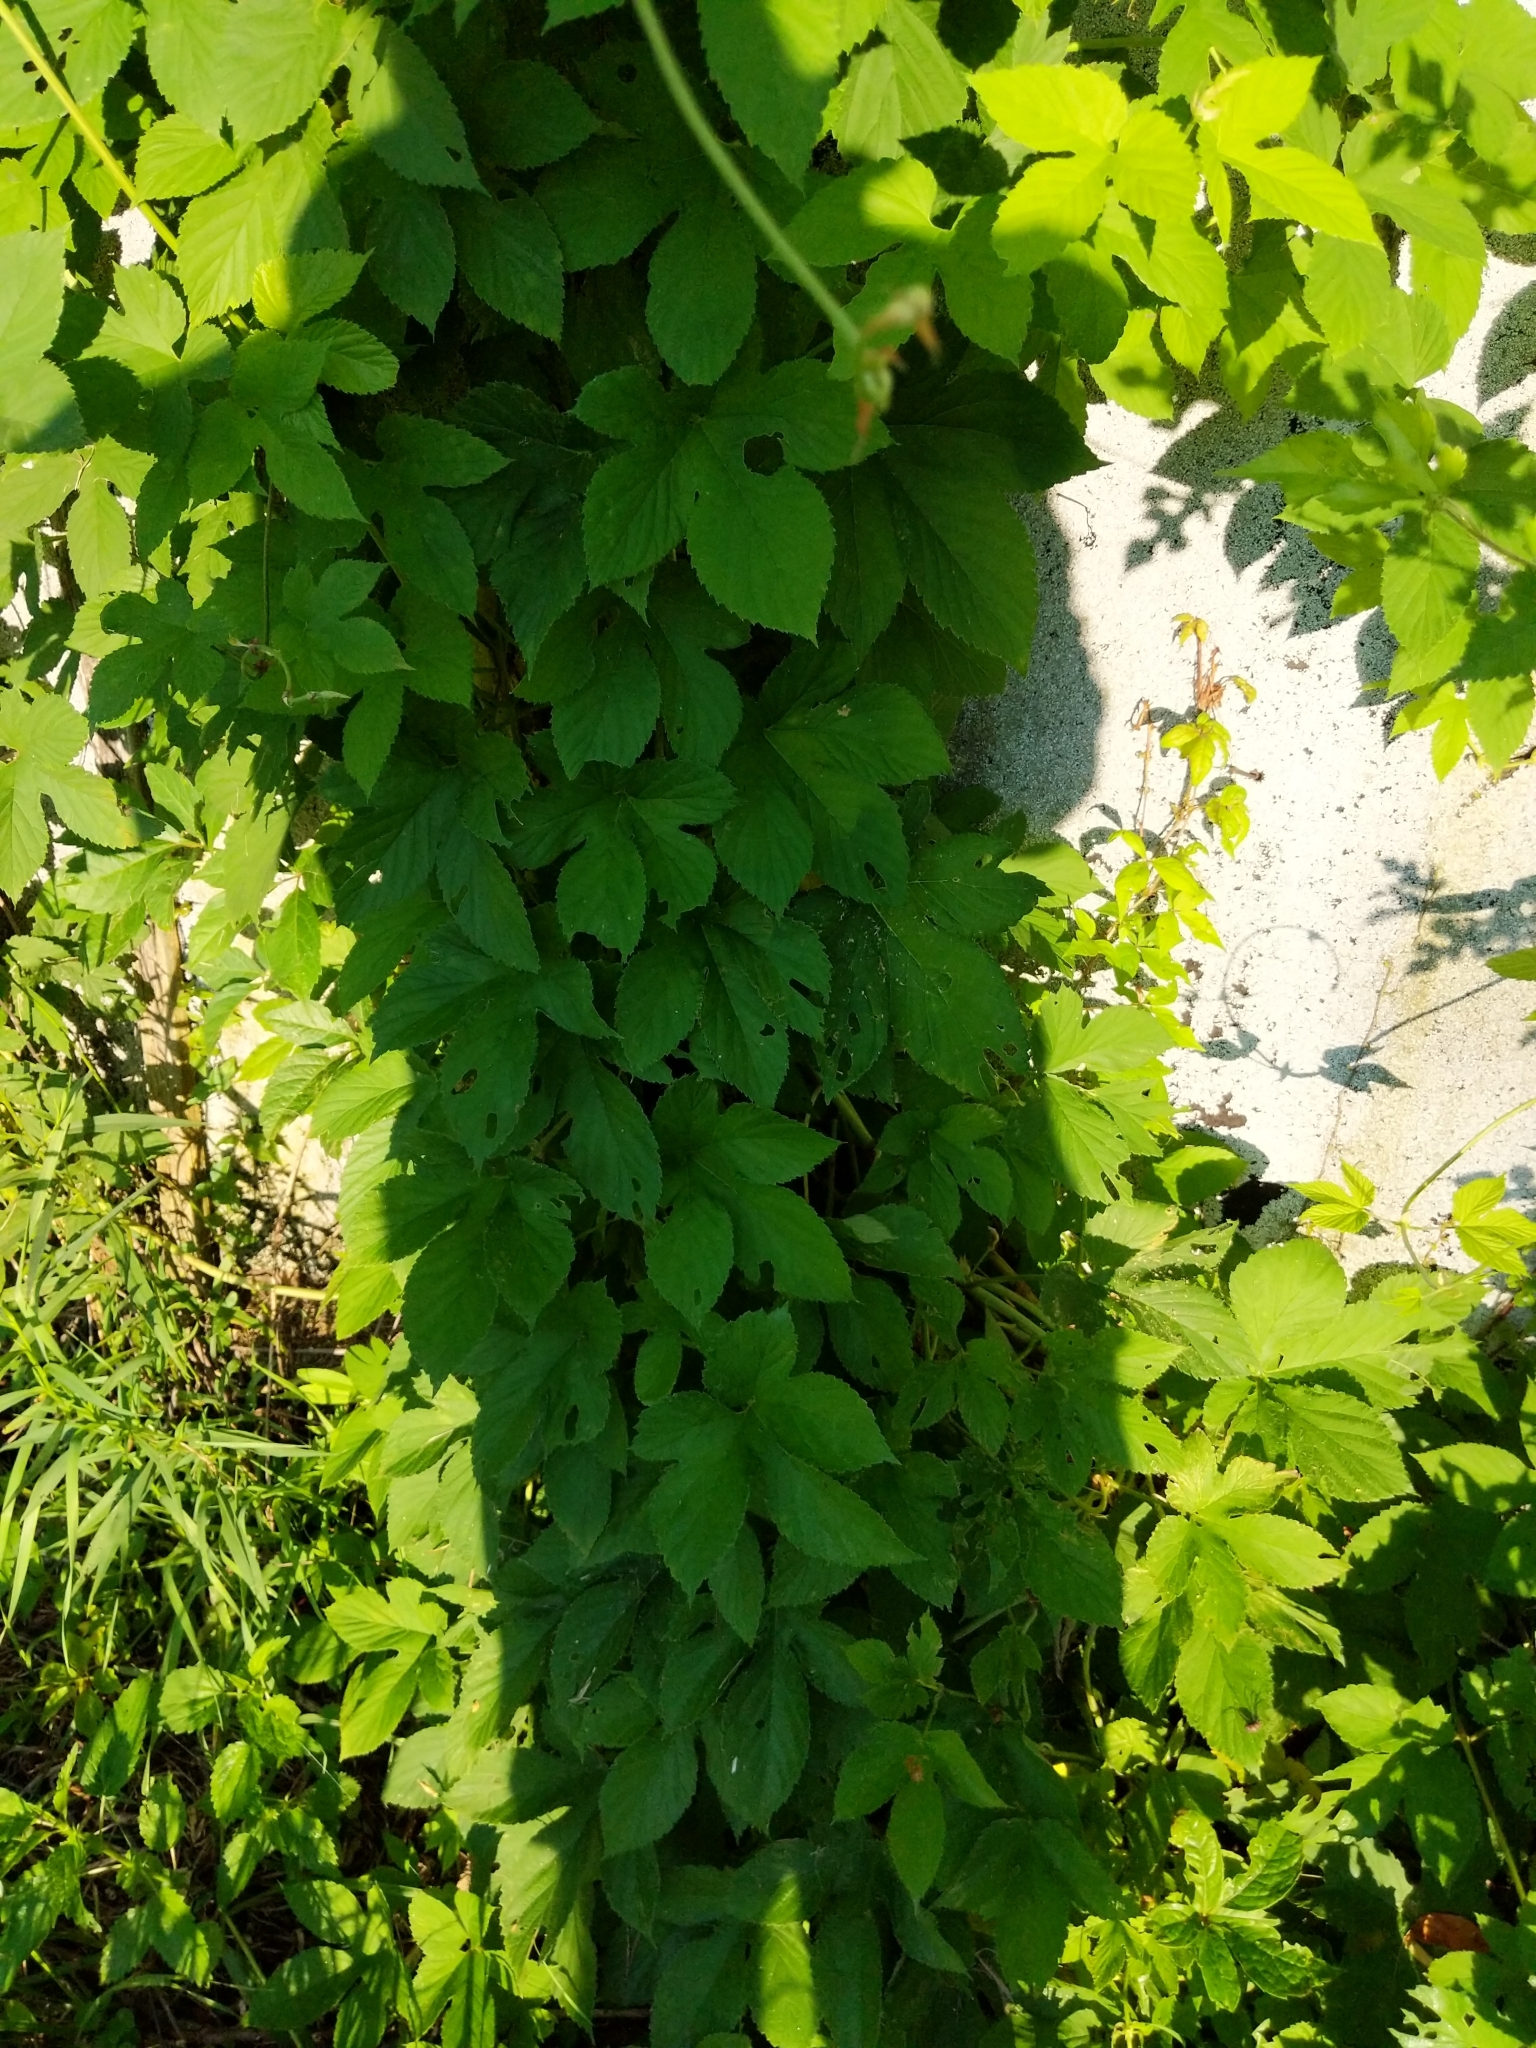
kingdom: Plantae
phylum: Tracheophyta
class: Magnoliopsida
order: Rosales
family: Cannabaceae
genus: Humulus
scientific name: Humulus lupulus
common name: Hop
